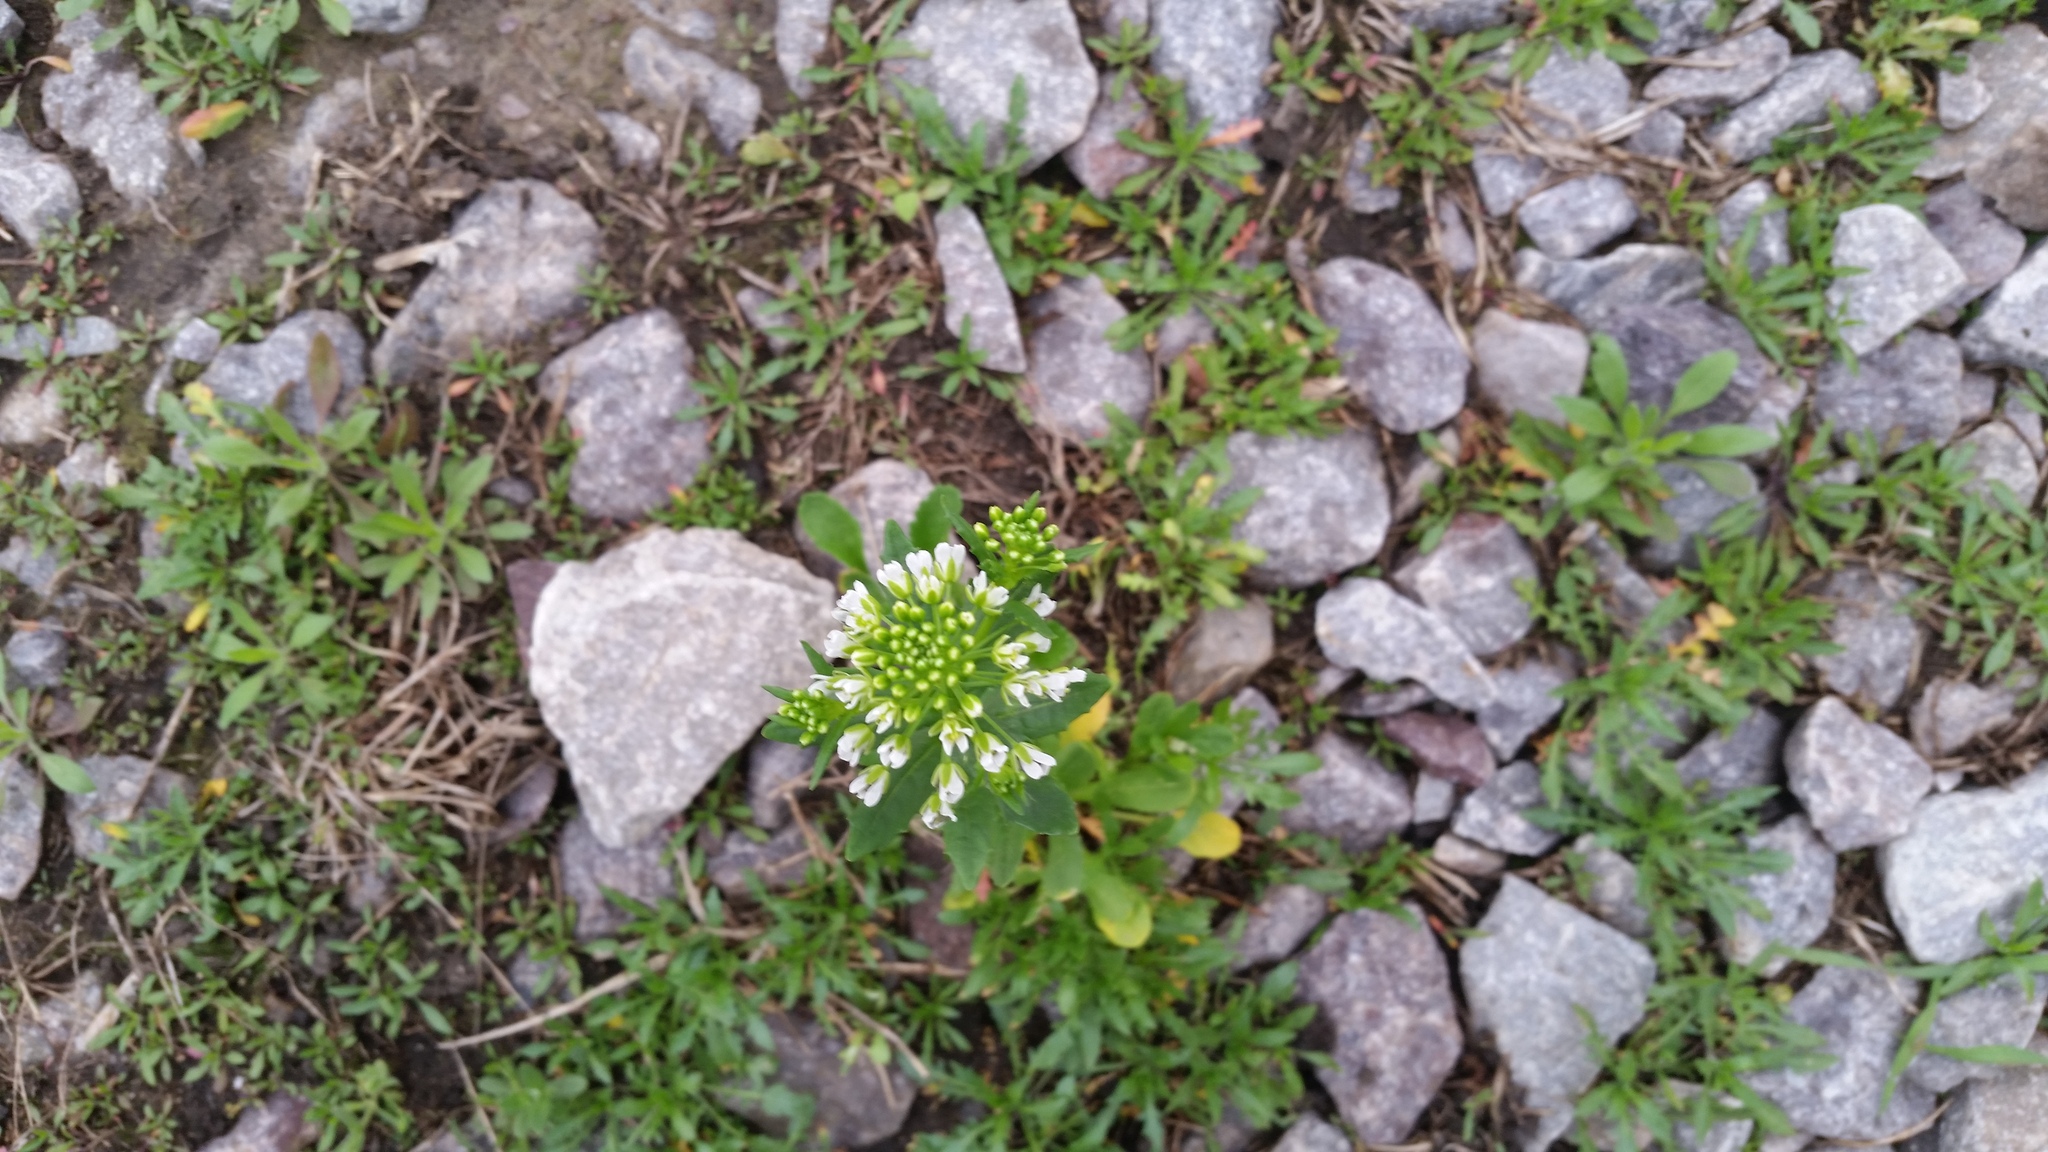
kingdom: Plantae
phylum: Tracheophyta
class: Magnoliopsida
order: Brassicales
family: Brassicaceae
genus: Thlaspi
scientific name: Thlaspi arvense
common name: Field pennycress
